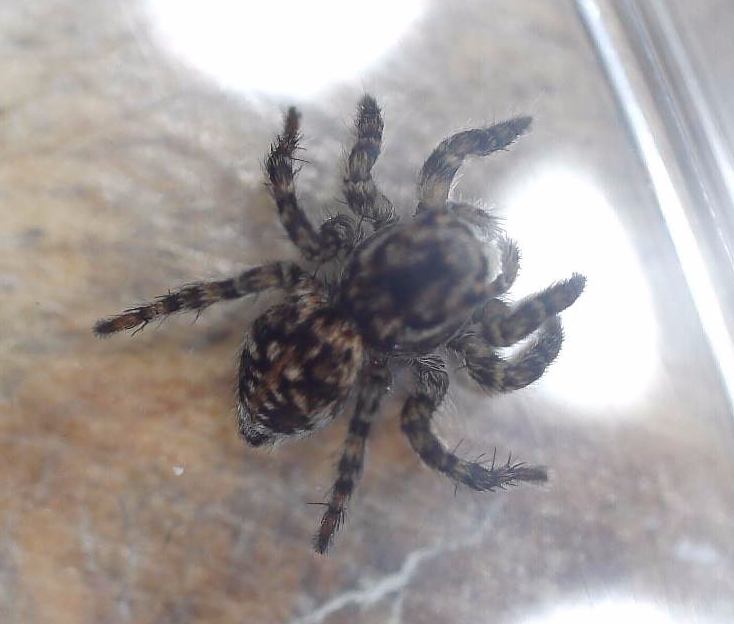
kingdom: Animalia
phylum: Arthropoda
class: Arachnida
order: Araneae
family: Salticidae
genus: Aelurillus
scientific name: Aelurillus v-insignitus
